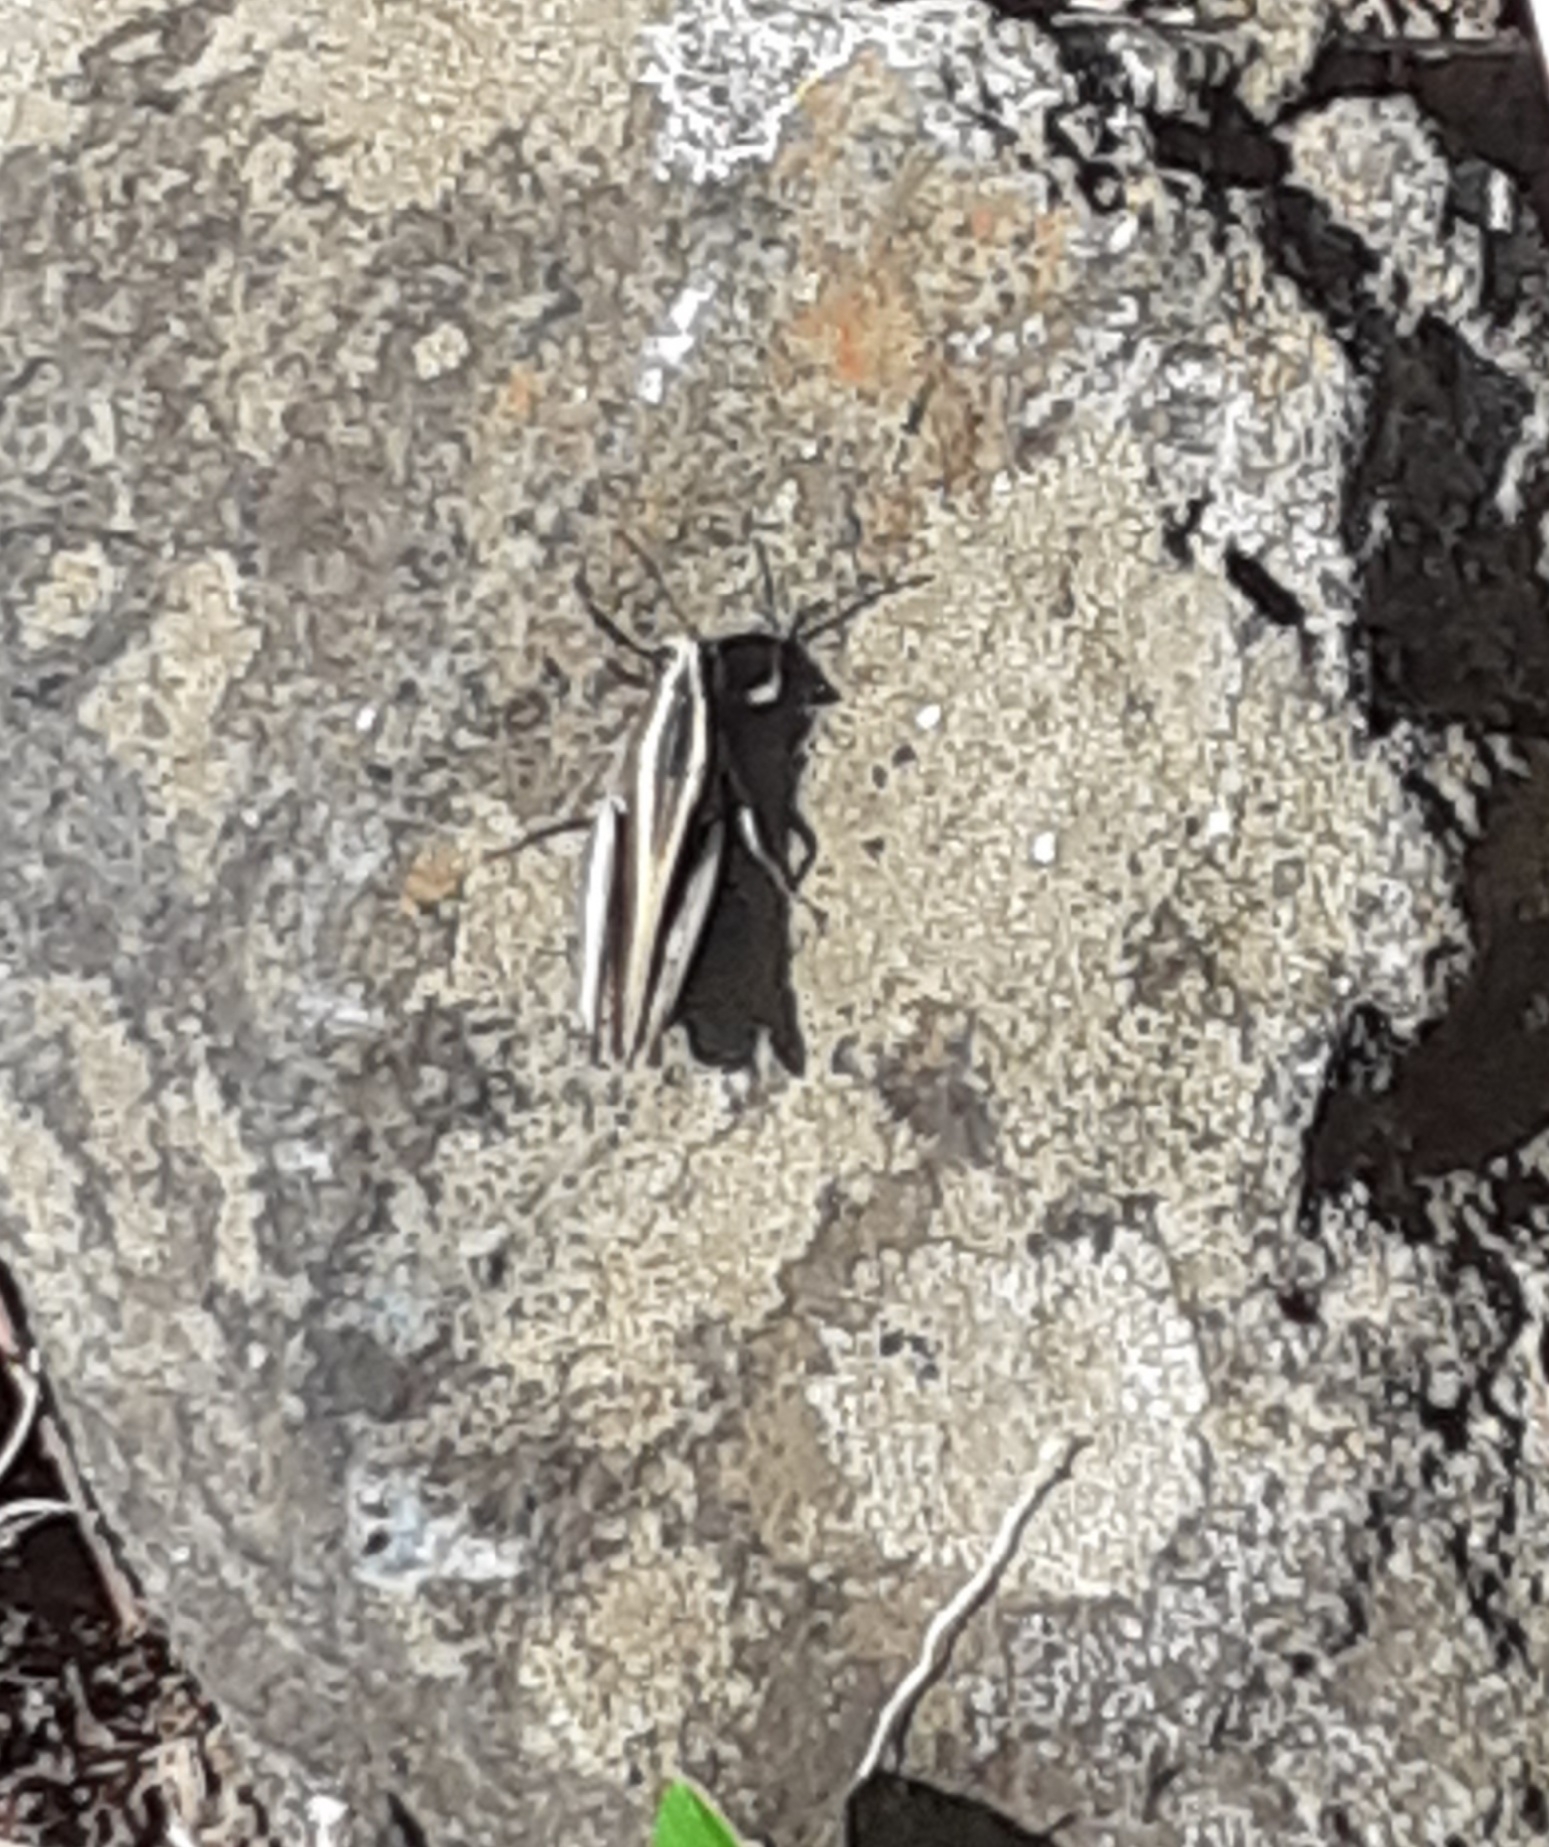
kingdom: Animalia
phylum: Arthropoda
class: Insecta
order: Orthoptera
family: Acrididae
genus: Calliptamus
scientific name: Calliptamus plebeius
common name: Canarian pincer grasshopper
